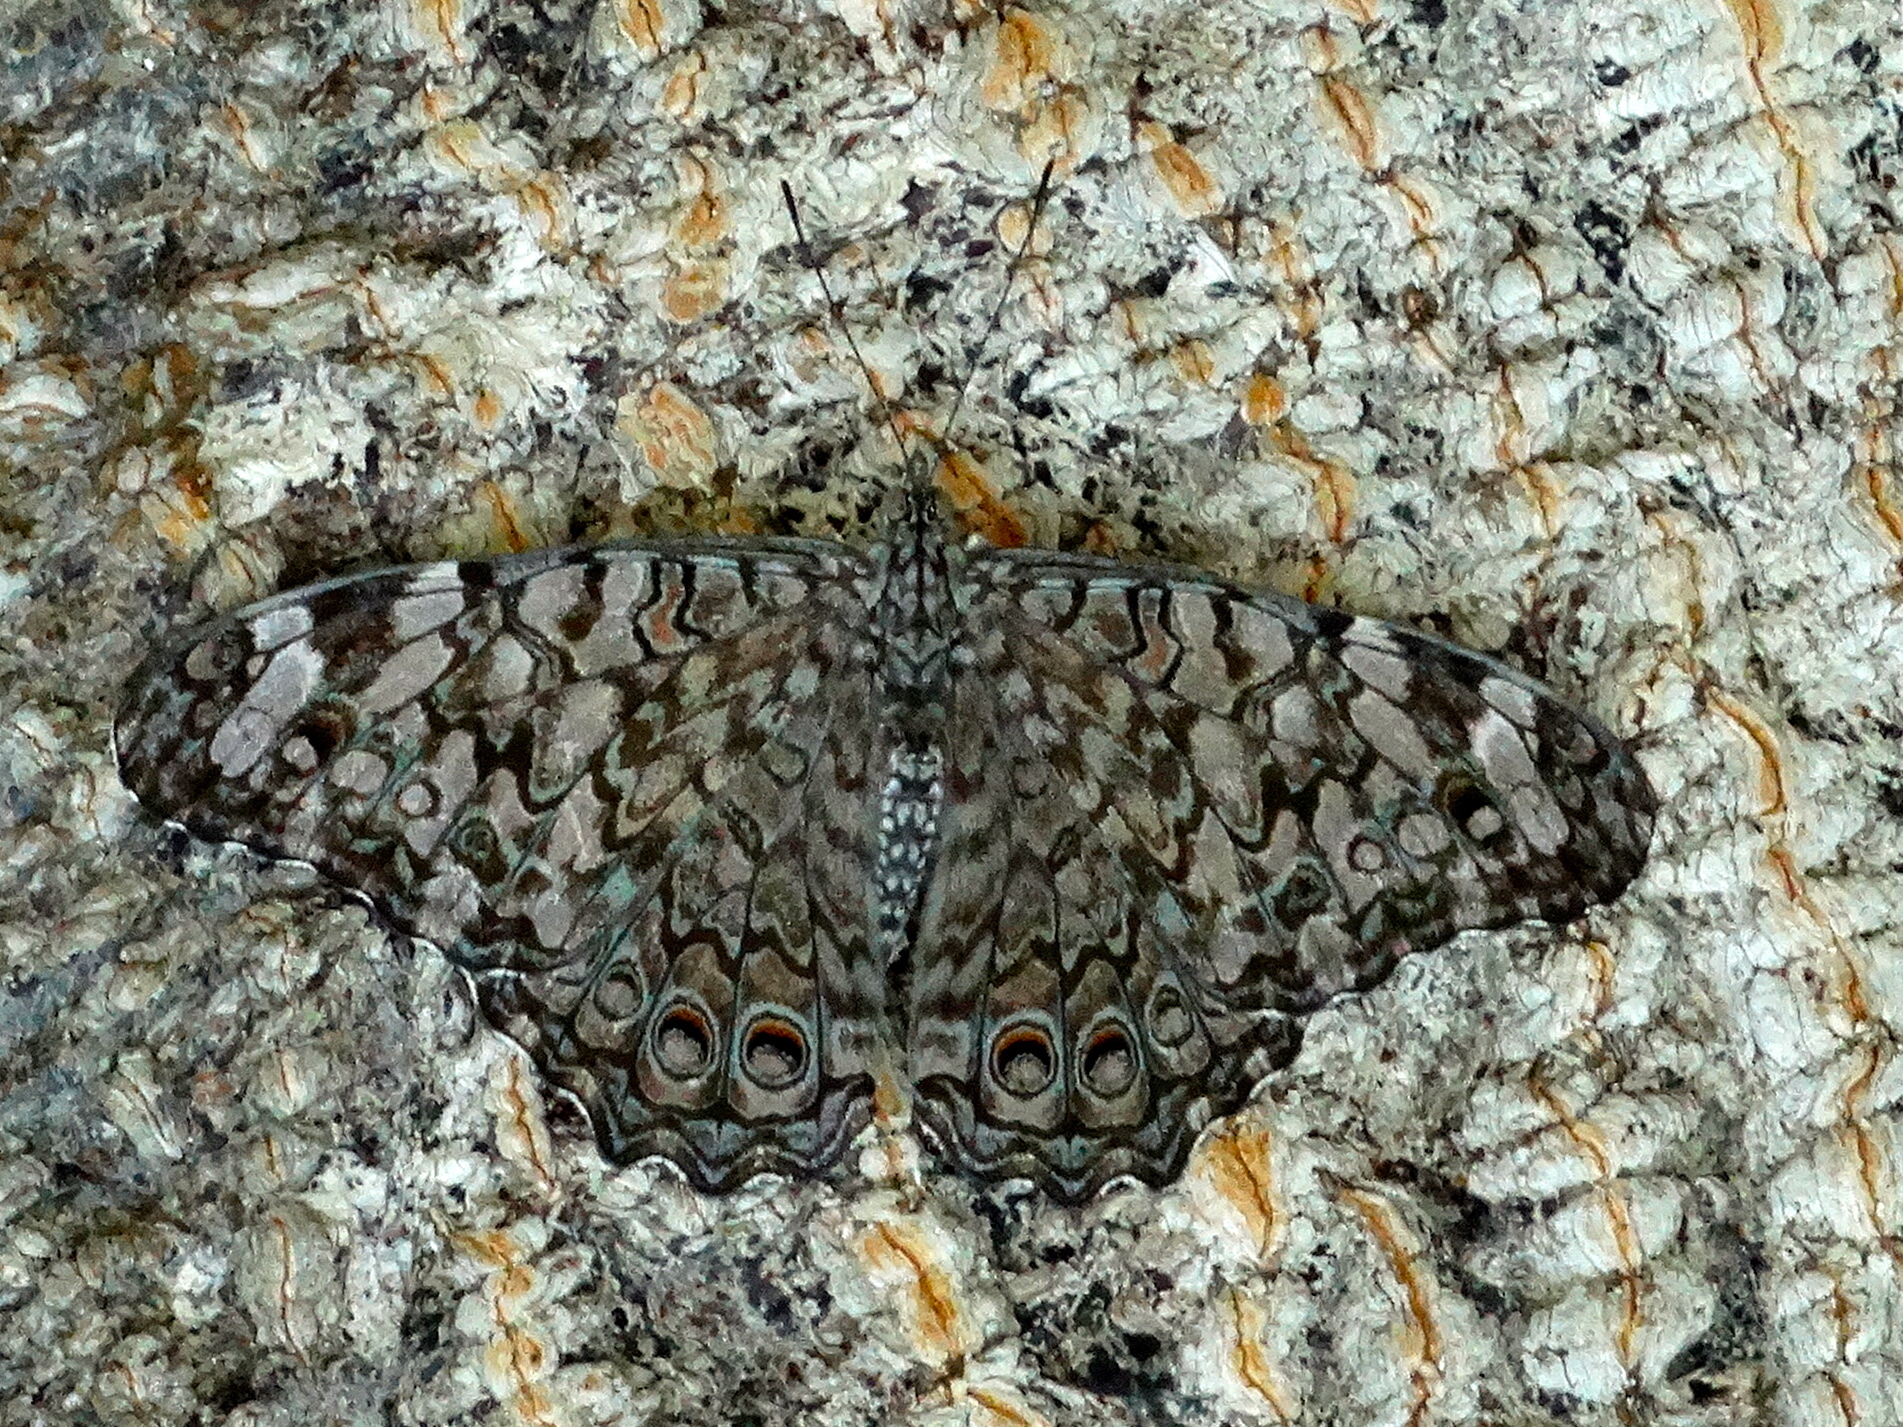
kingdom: Animalia
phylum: Arthropoda
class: Insecta
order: Lepidoptera
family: Nymphalidae
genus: Hamadryas
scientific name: Hamadryas
